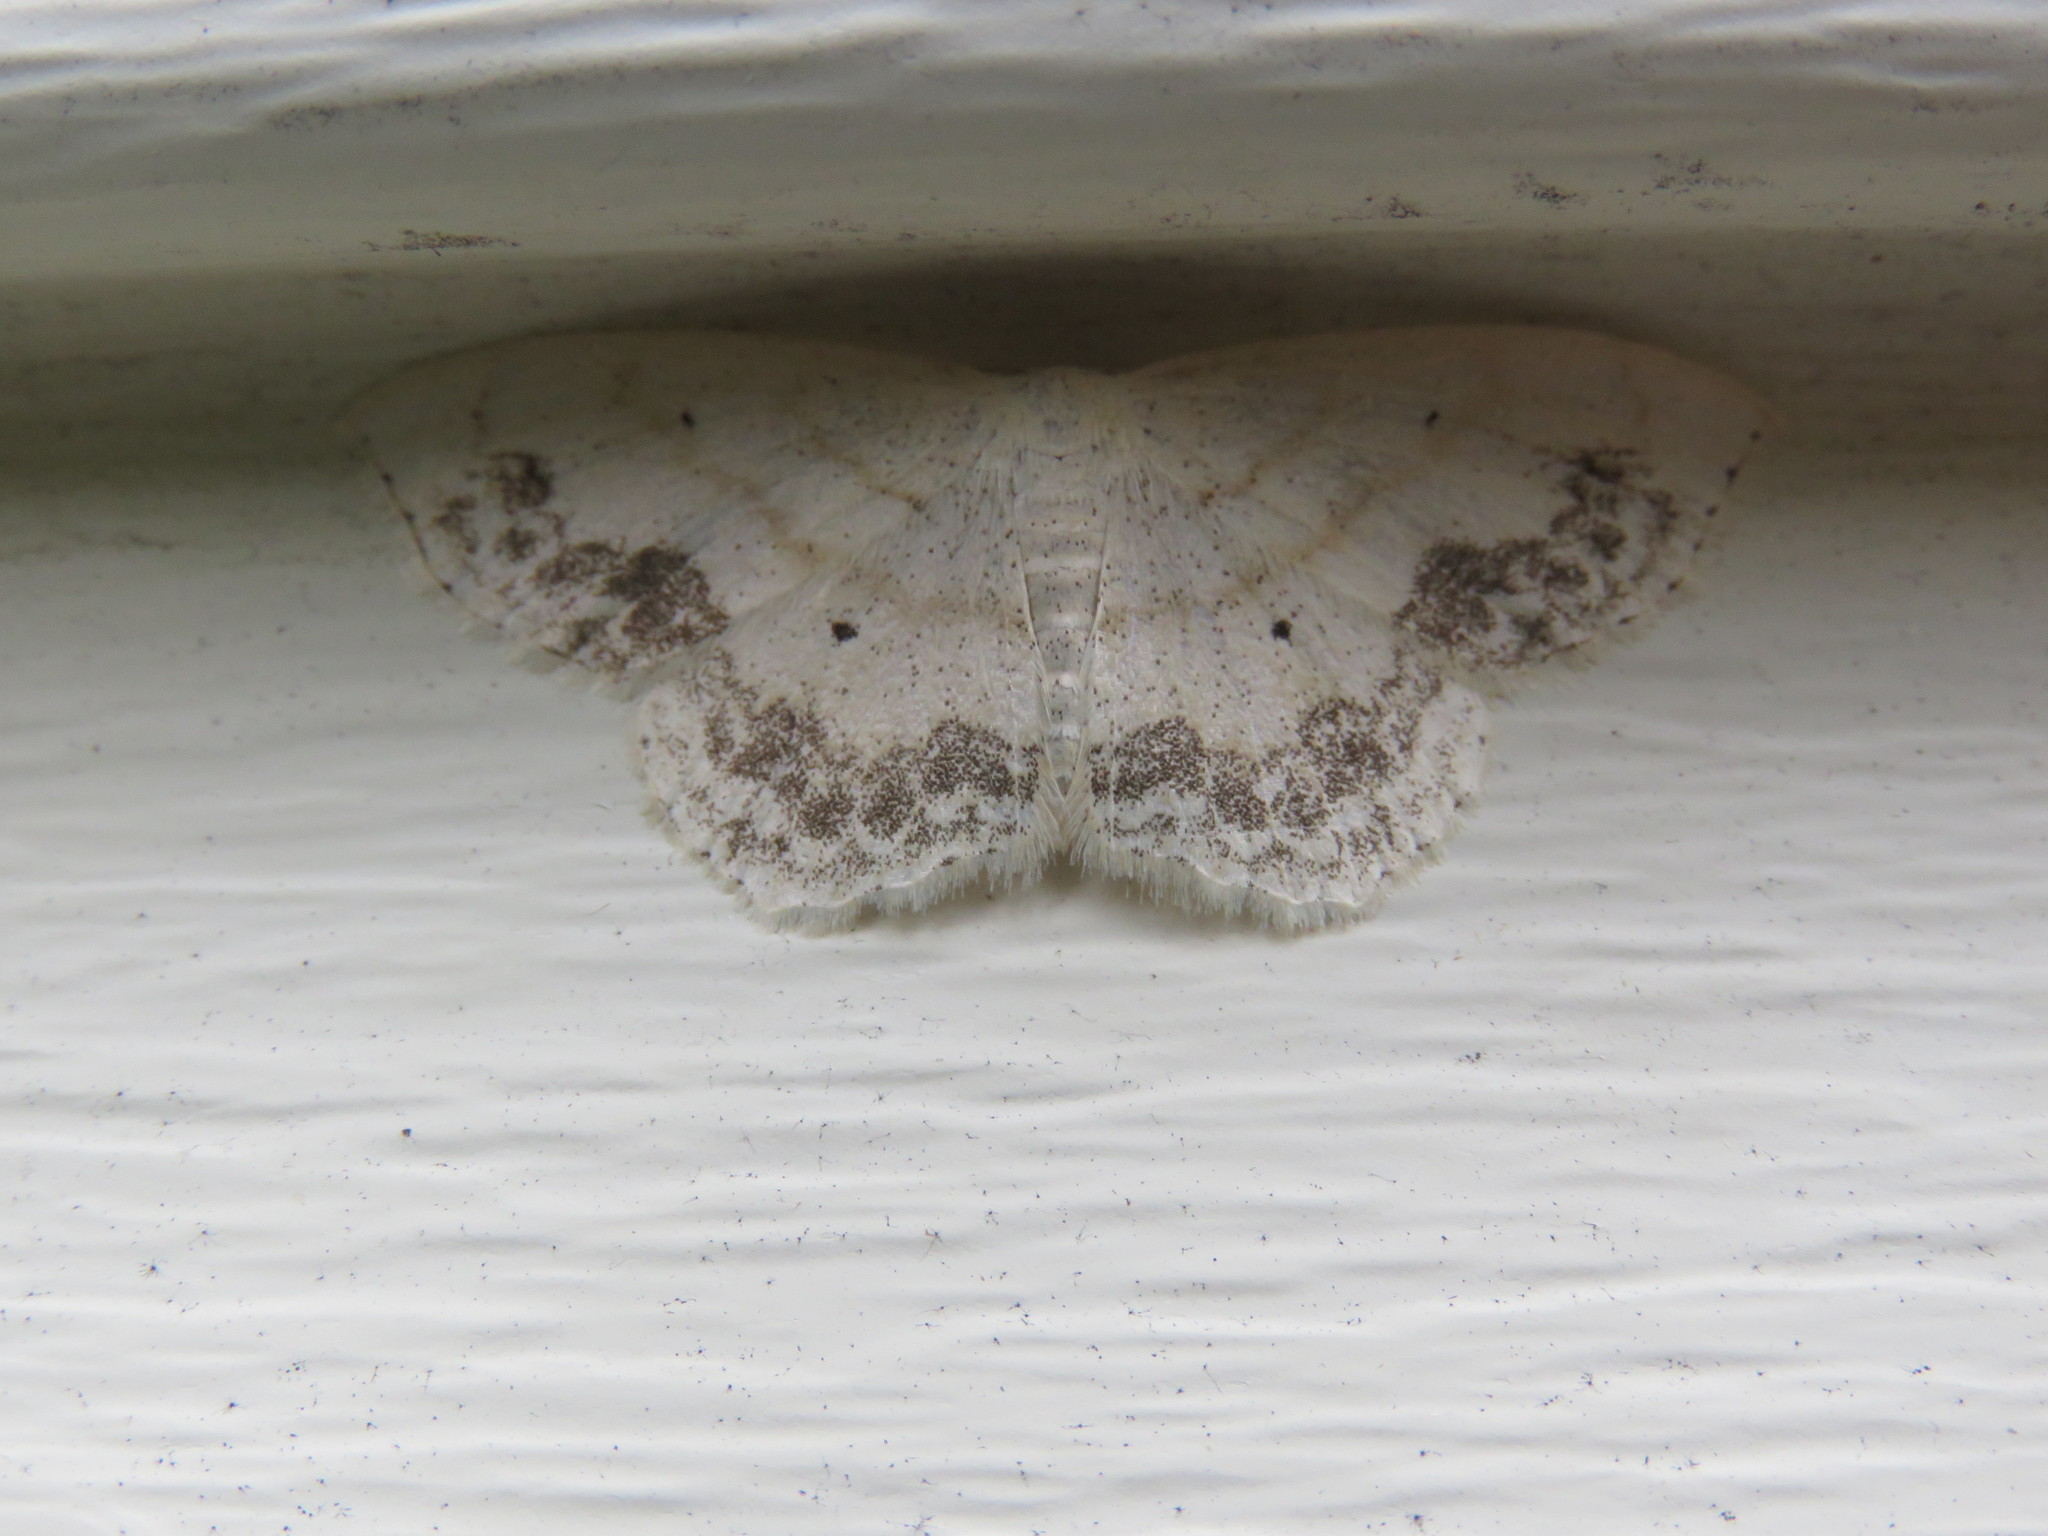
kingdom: Animalia
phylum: Arthropoda
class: Insecta
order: Lepidoptera
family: Geometridae
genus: Scopula
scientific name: Scopula limboundata
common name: Large lace border
